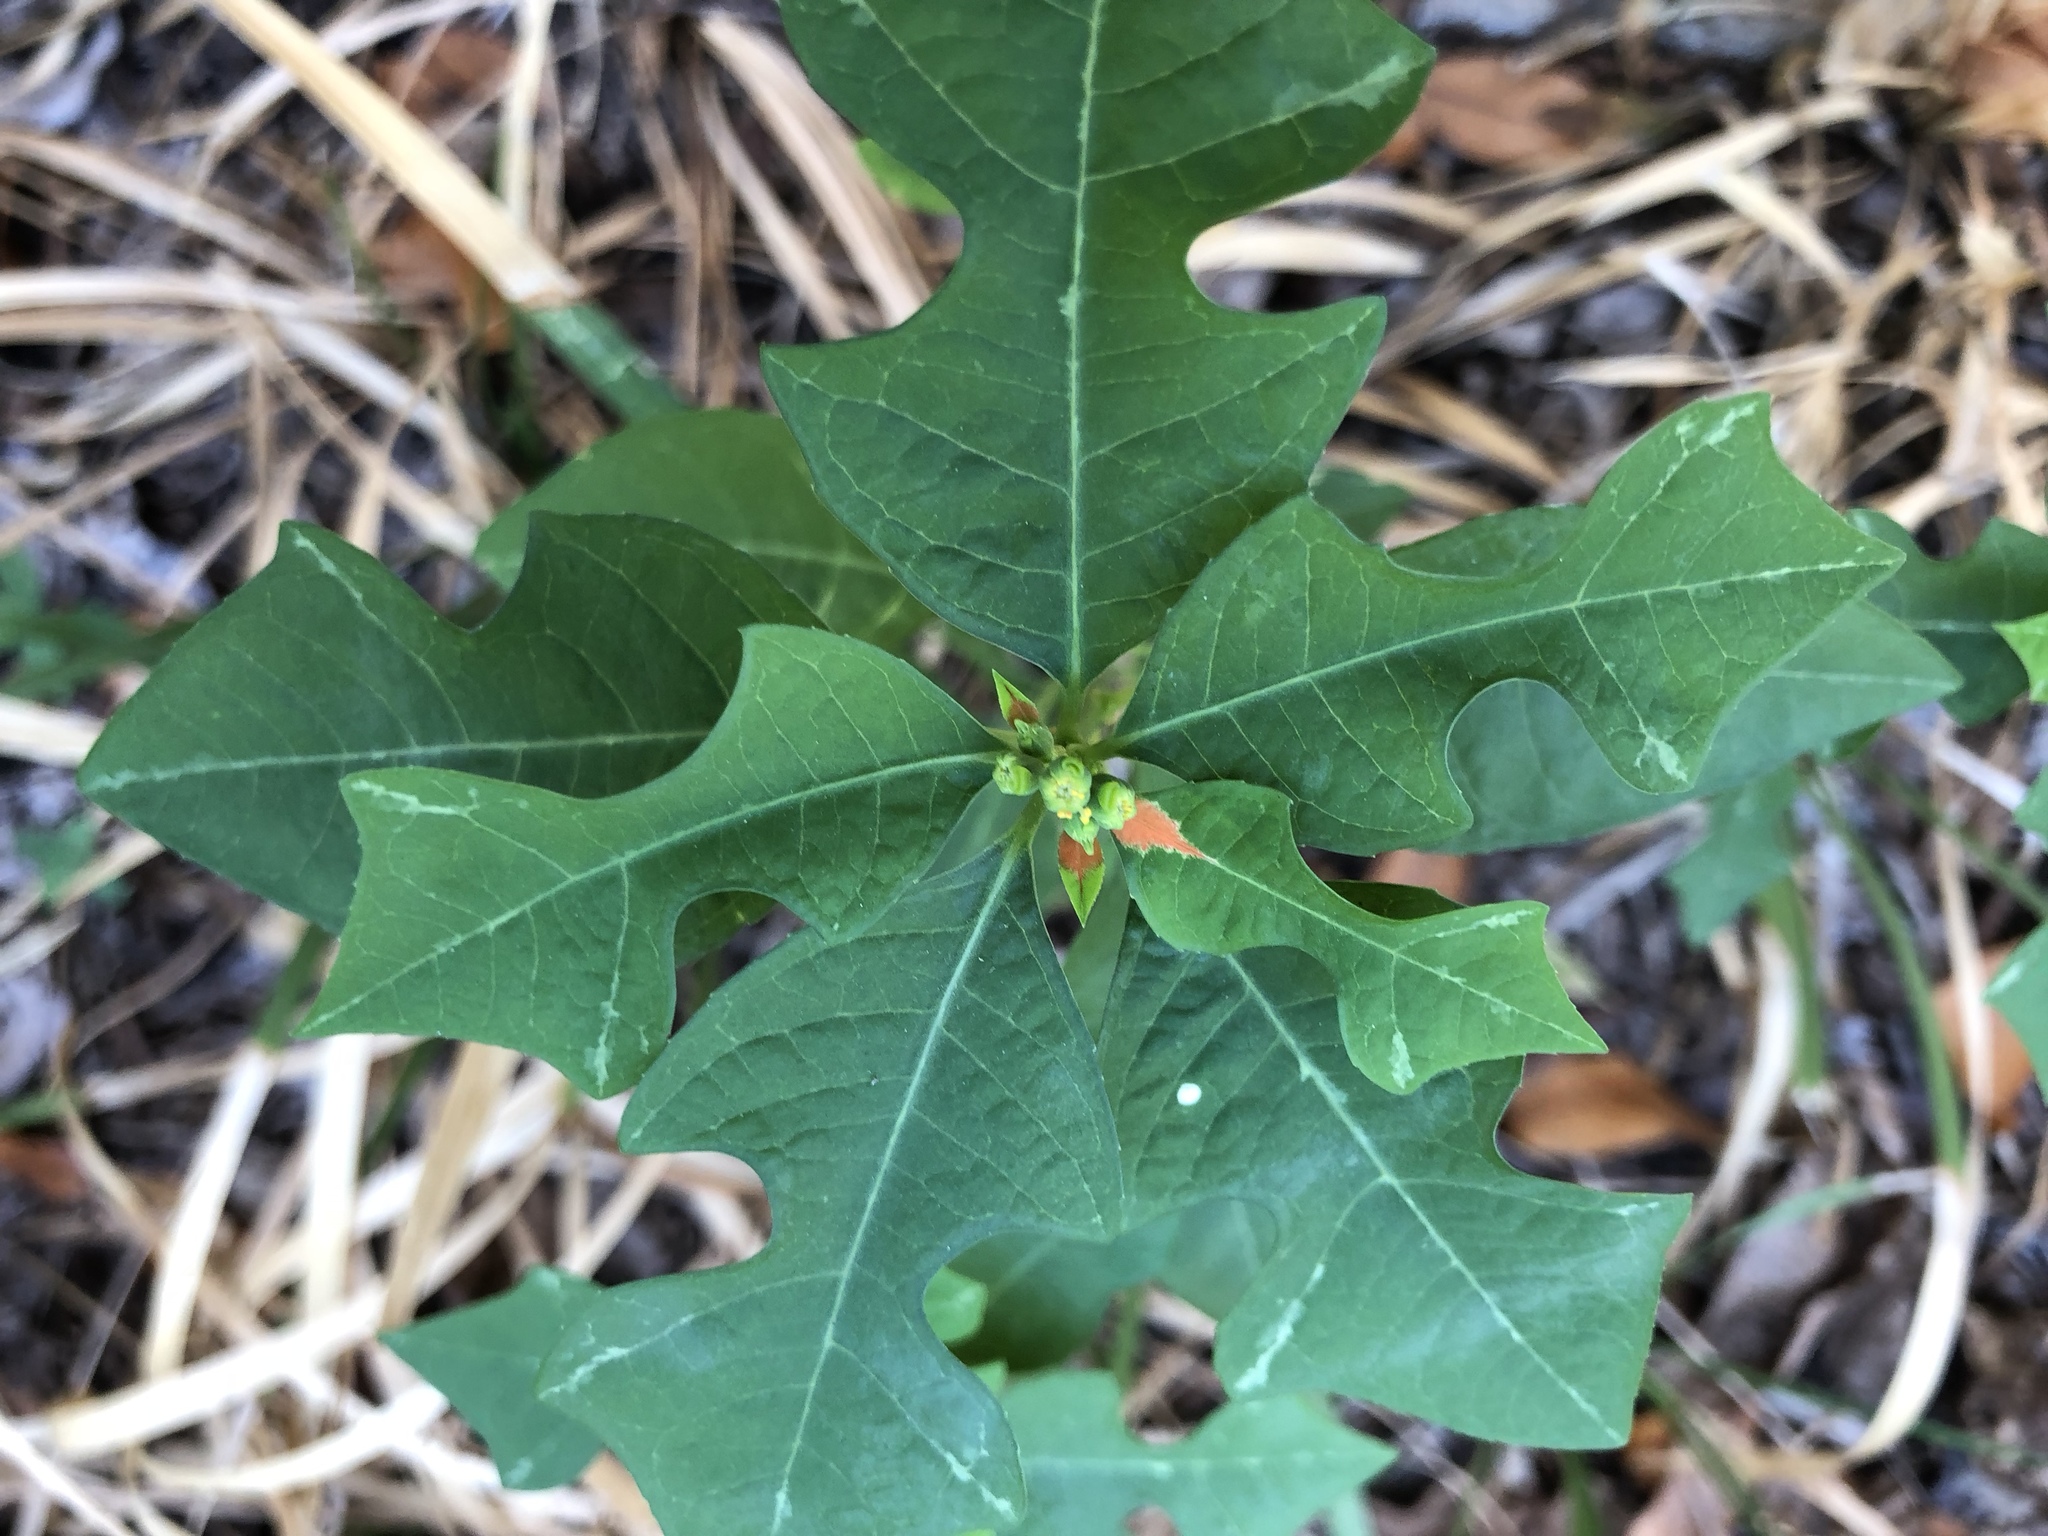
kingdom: Plantae
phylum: Tracheophyta
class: Magnoliopsida
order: Malpighiales
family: Euphorbiaceae
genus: Euphorbia
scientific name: Euphorbia heterophylla
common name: Mexican fireplant
